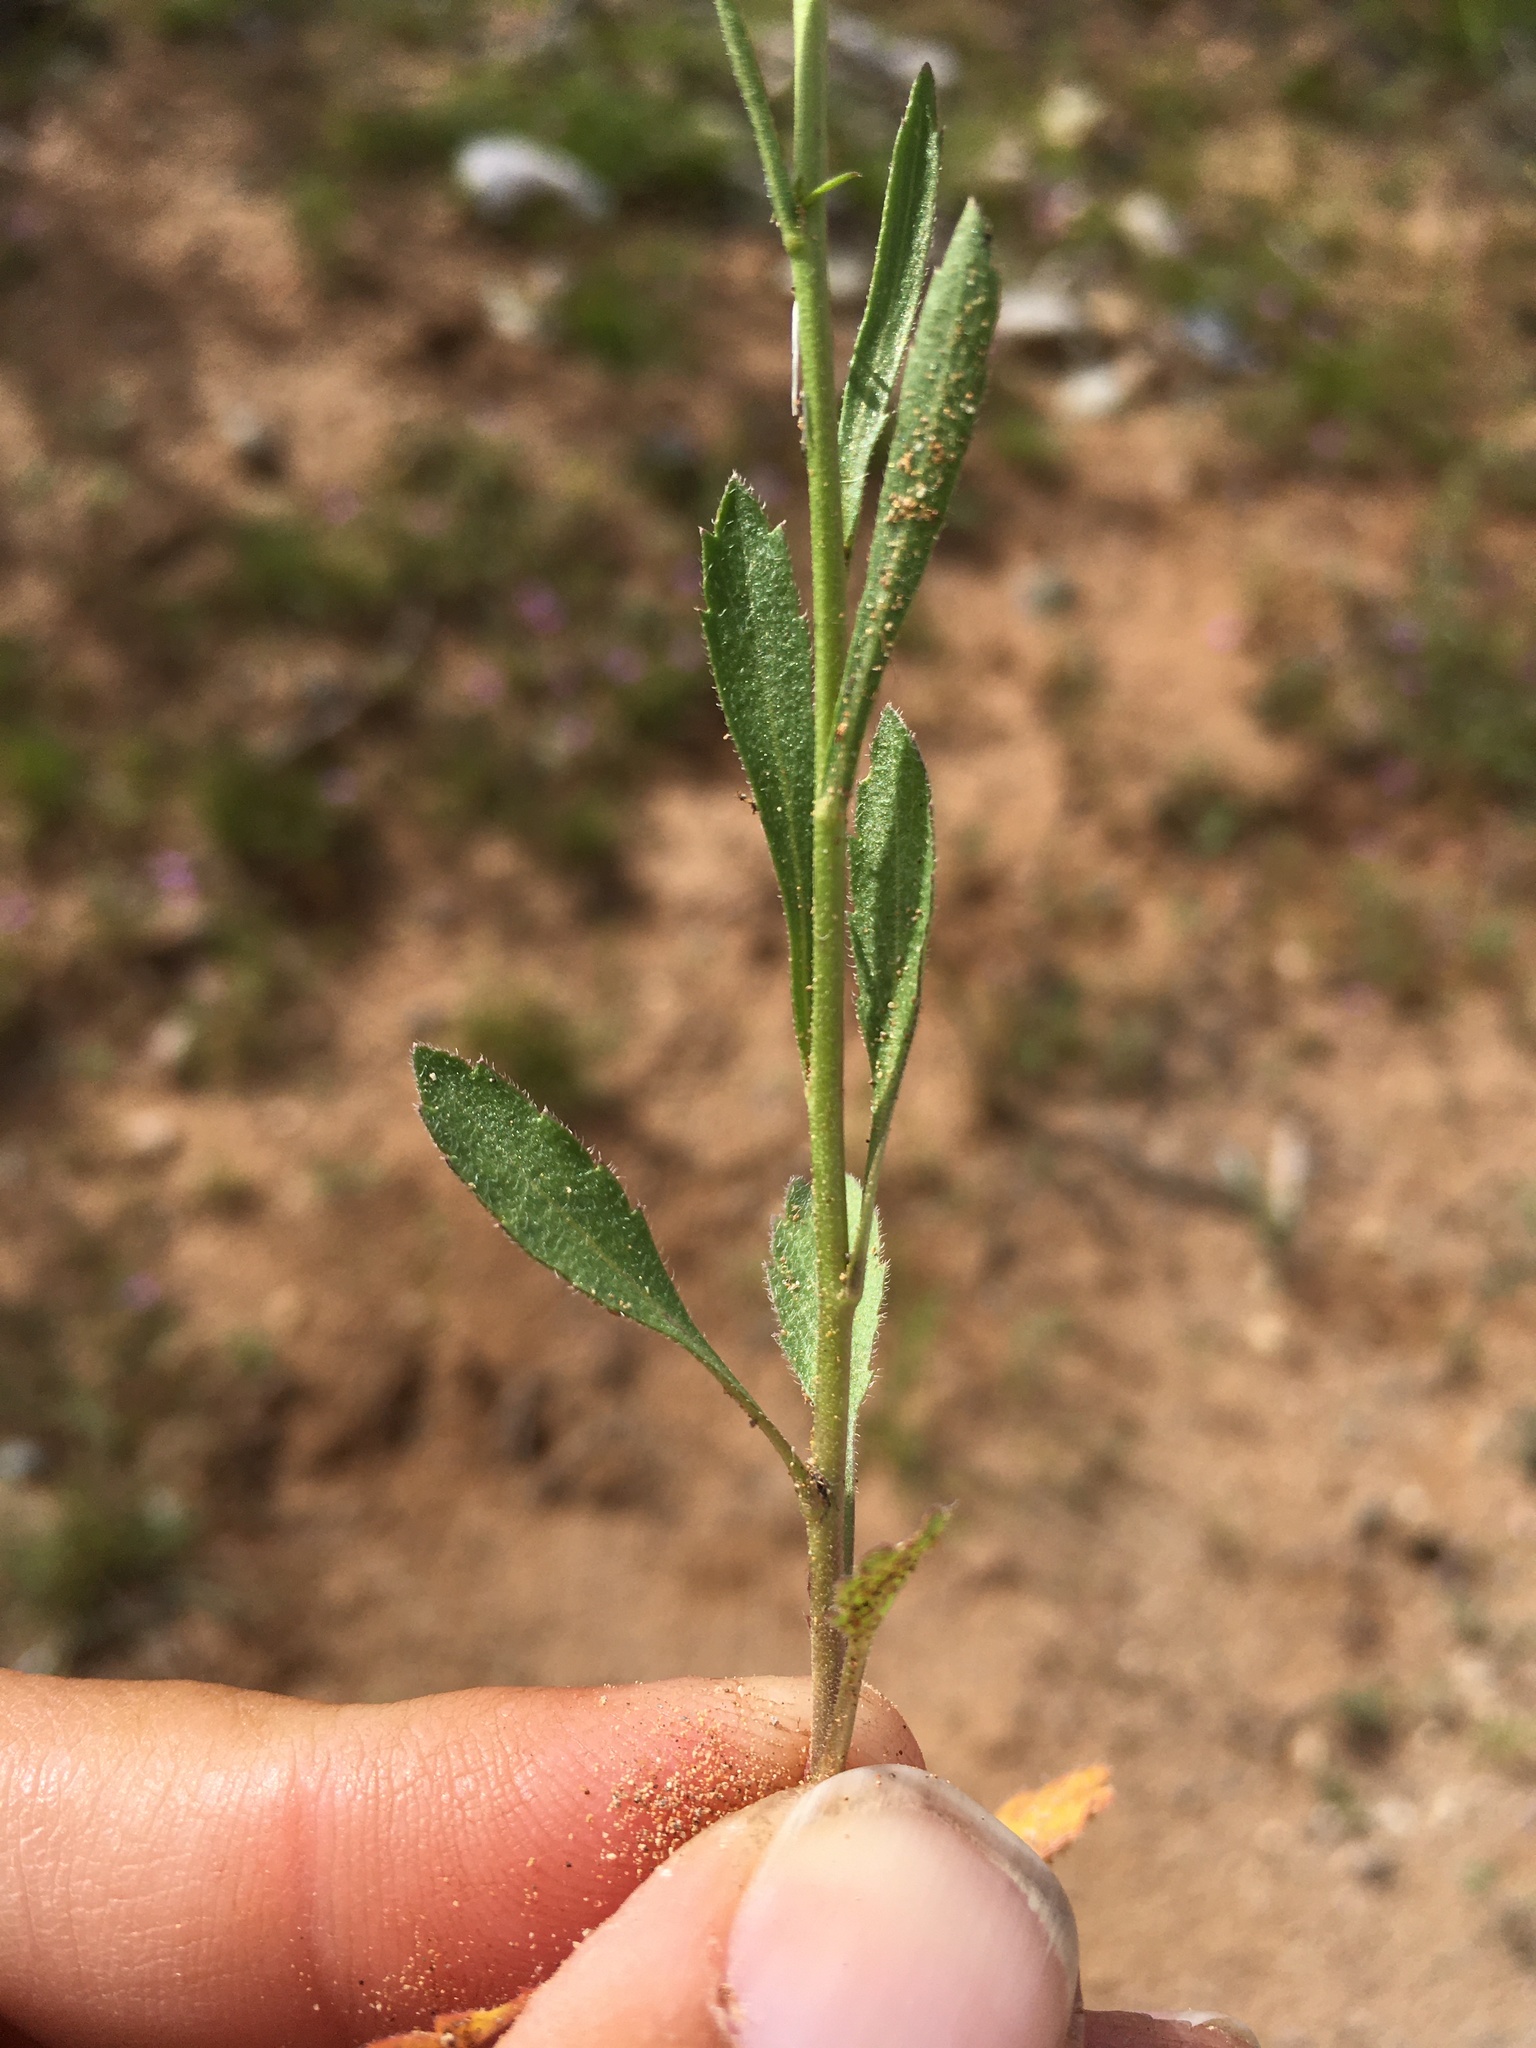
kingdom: Plantae
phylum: Tracheophyta
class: Magnoliopsida
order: Brassicales
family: Brassicaceae
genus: Lepidium
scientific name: Lepidium virginicum
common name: Least pepperwort
